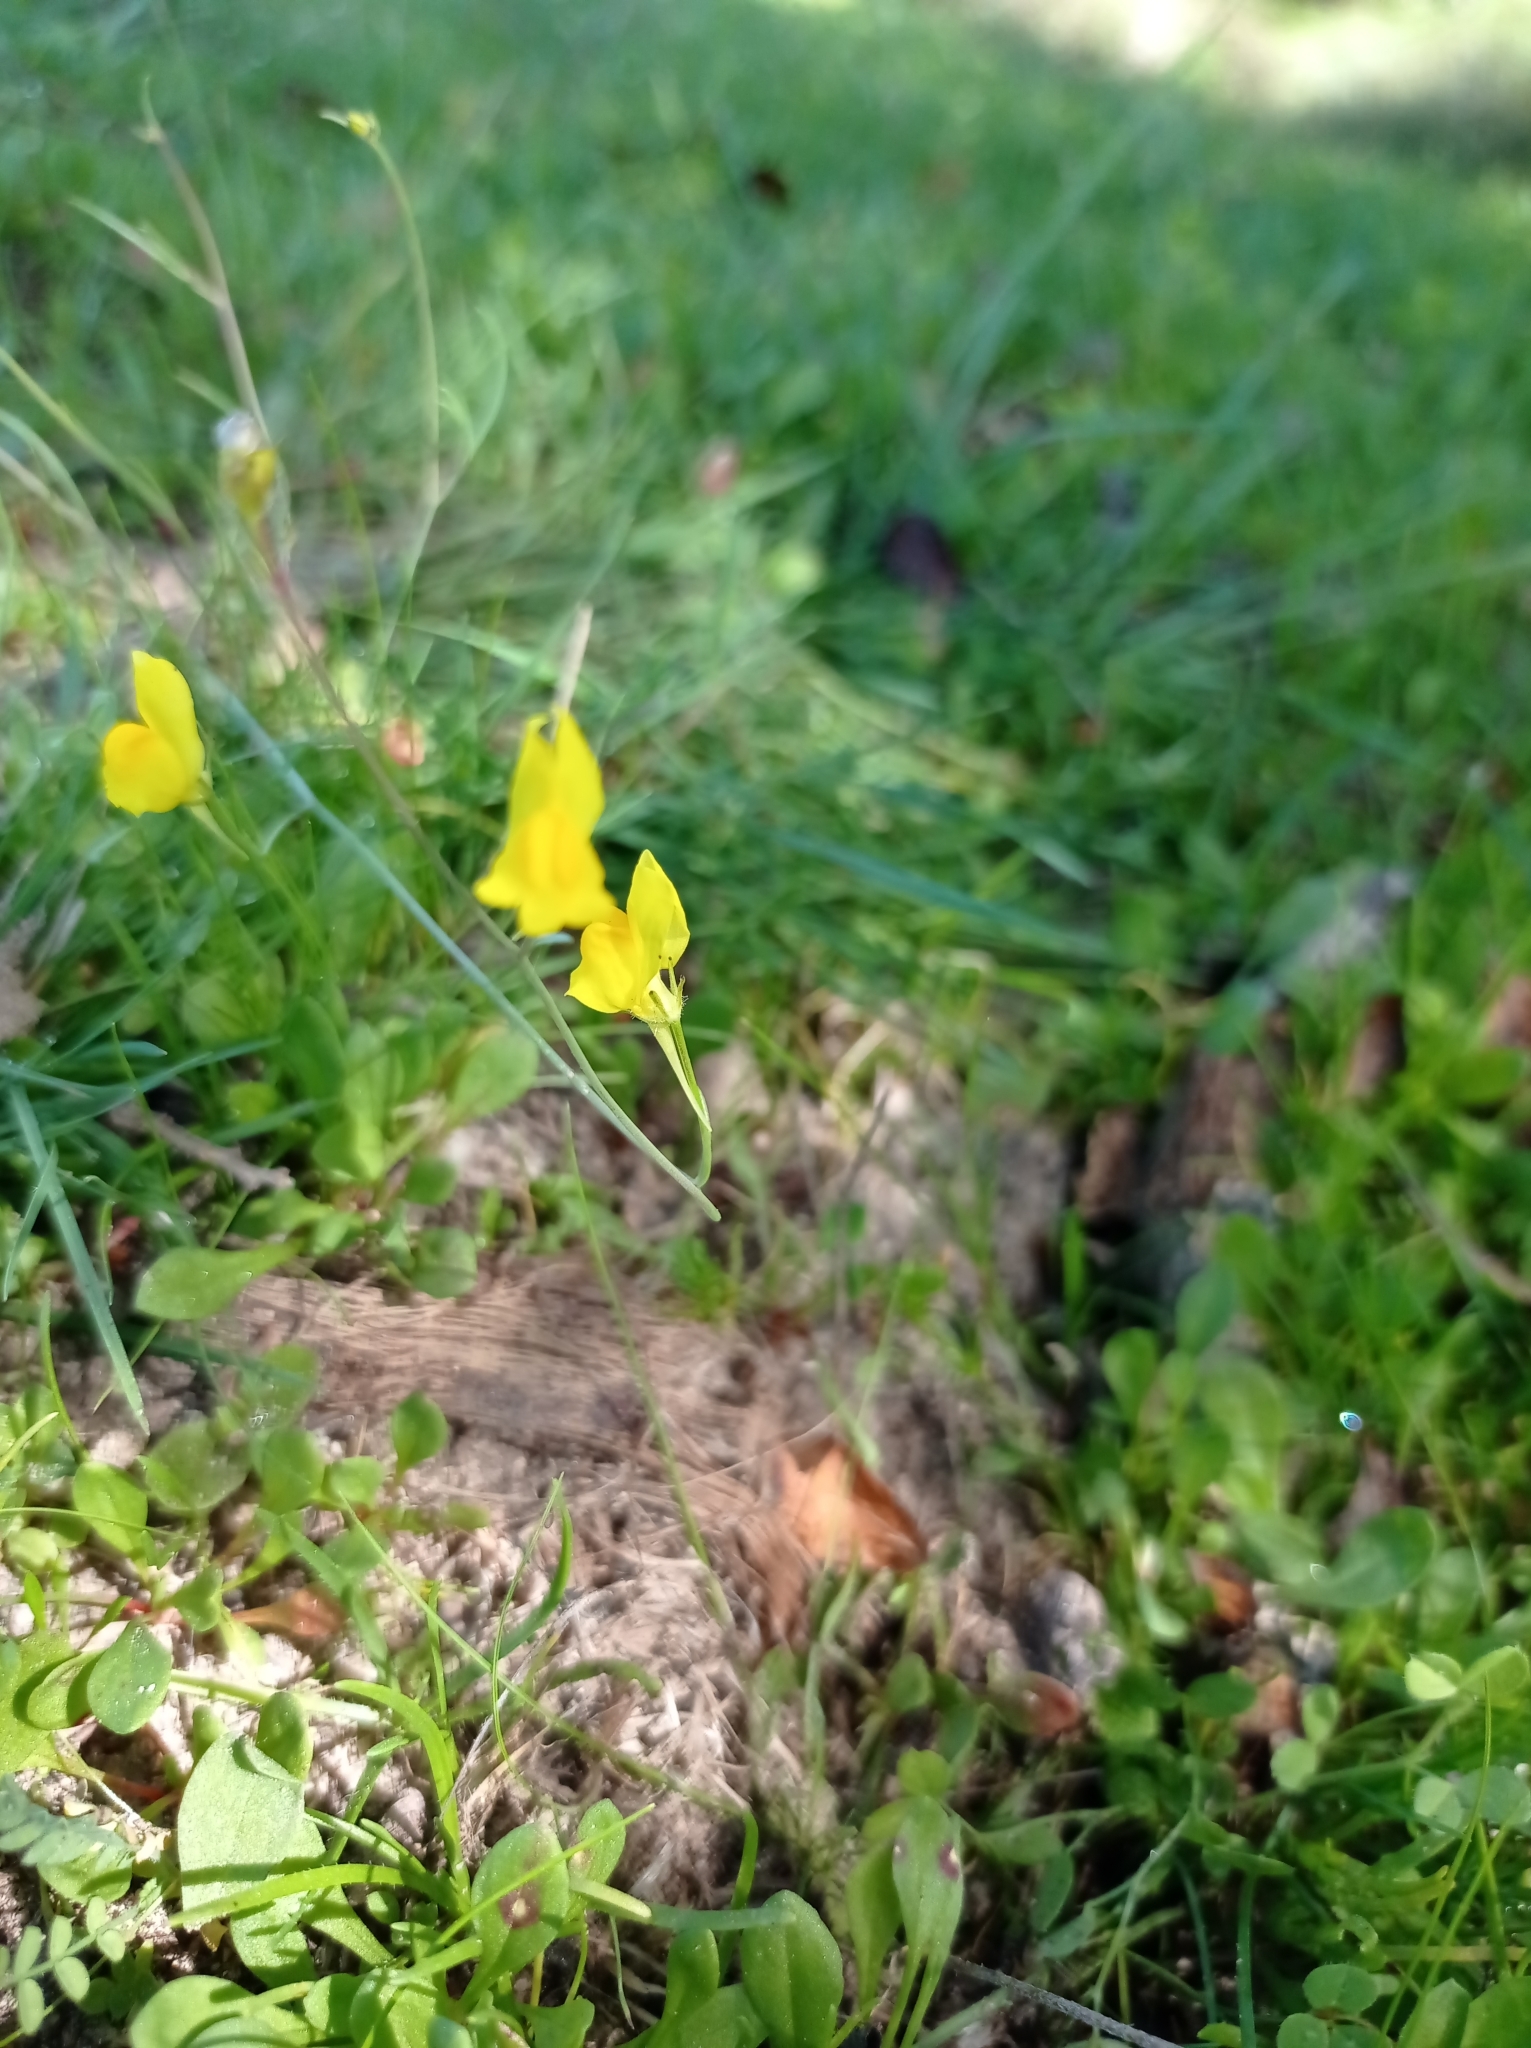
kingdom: Plantae
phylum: Tracheophyta
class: Magnoliopsida
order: Lamiales
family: Plantaginaceae
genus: Linaria
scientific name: Linaria spartea
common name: Ballast toadflax
